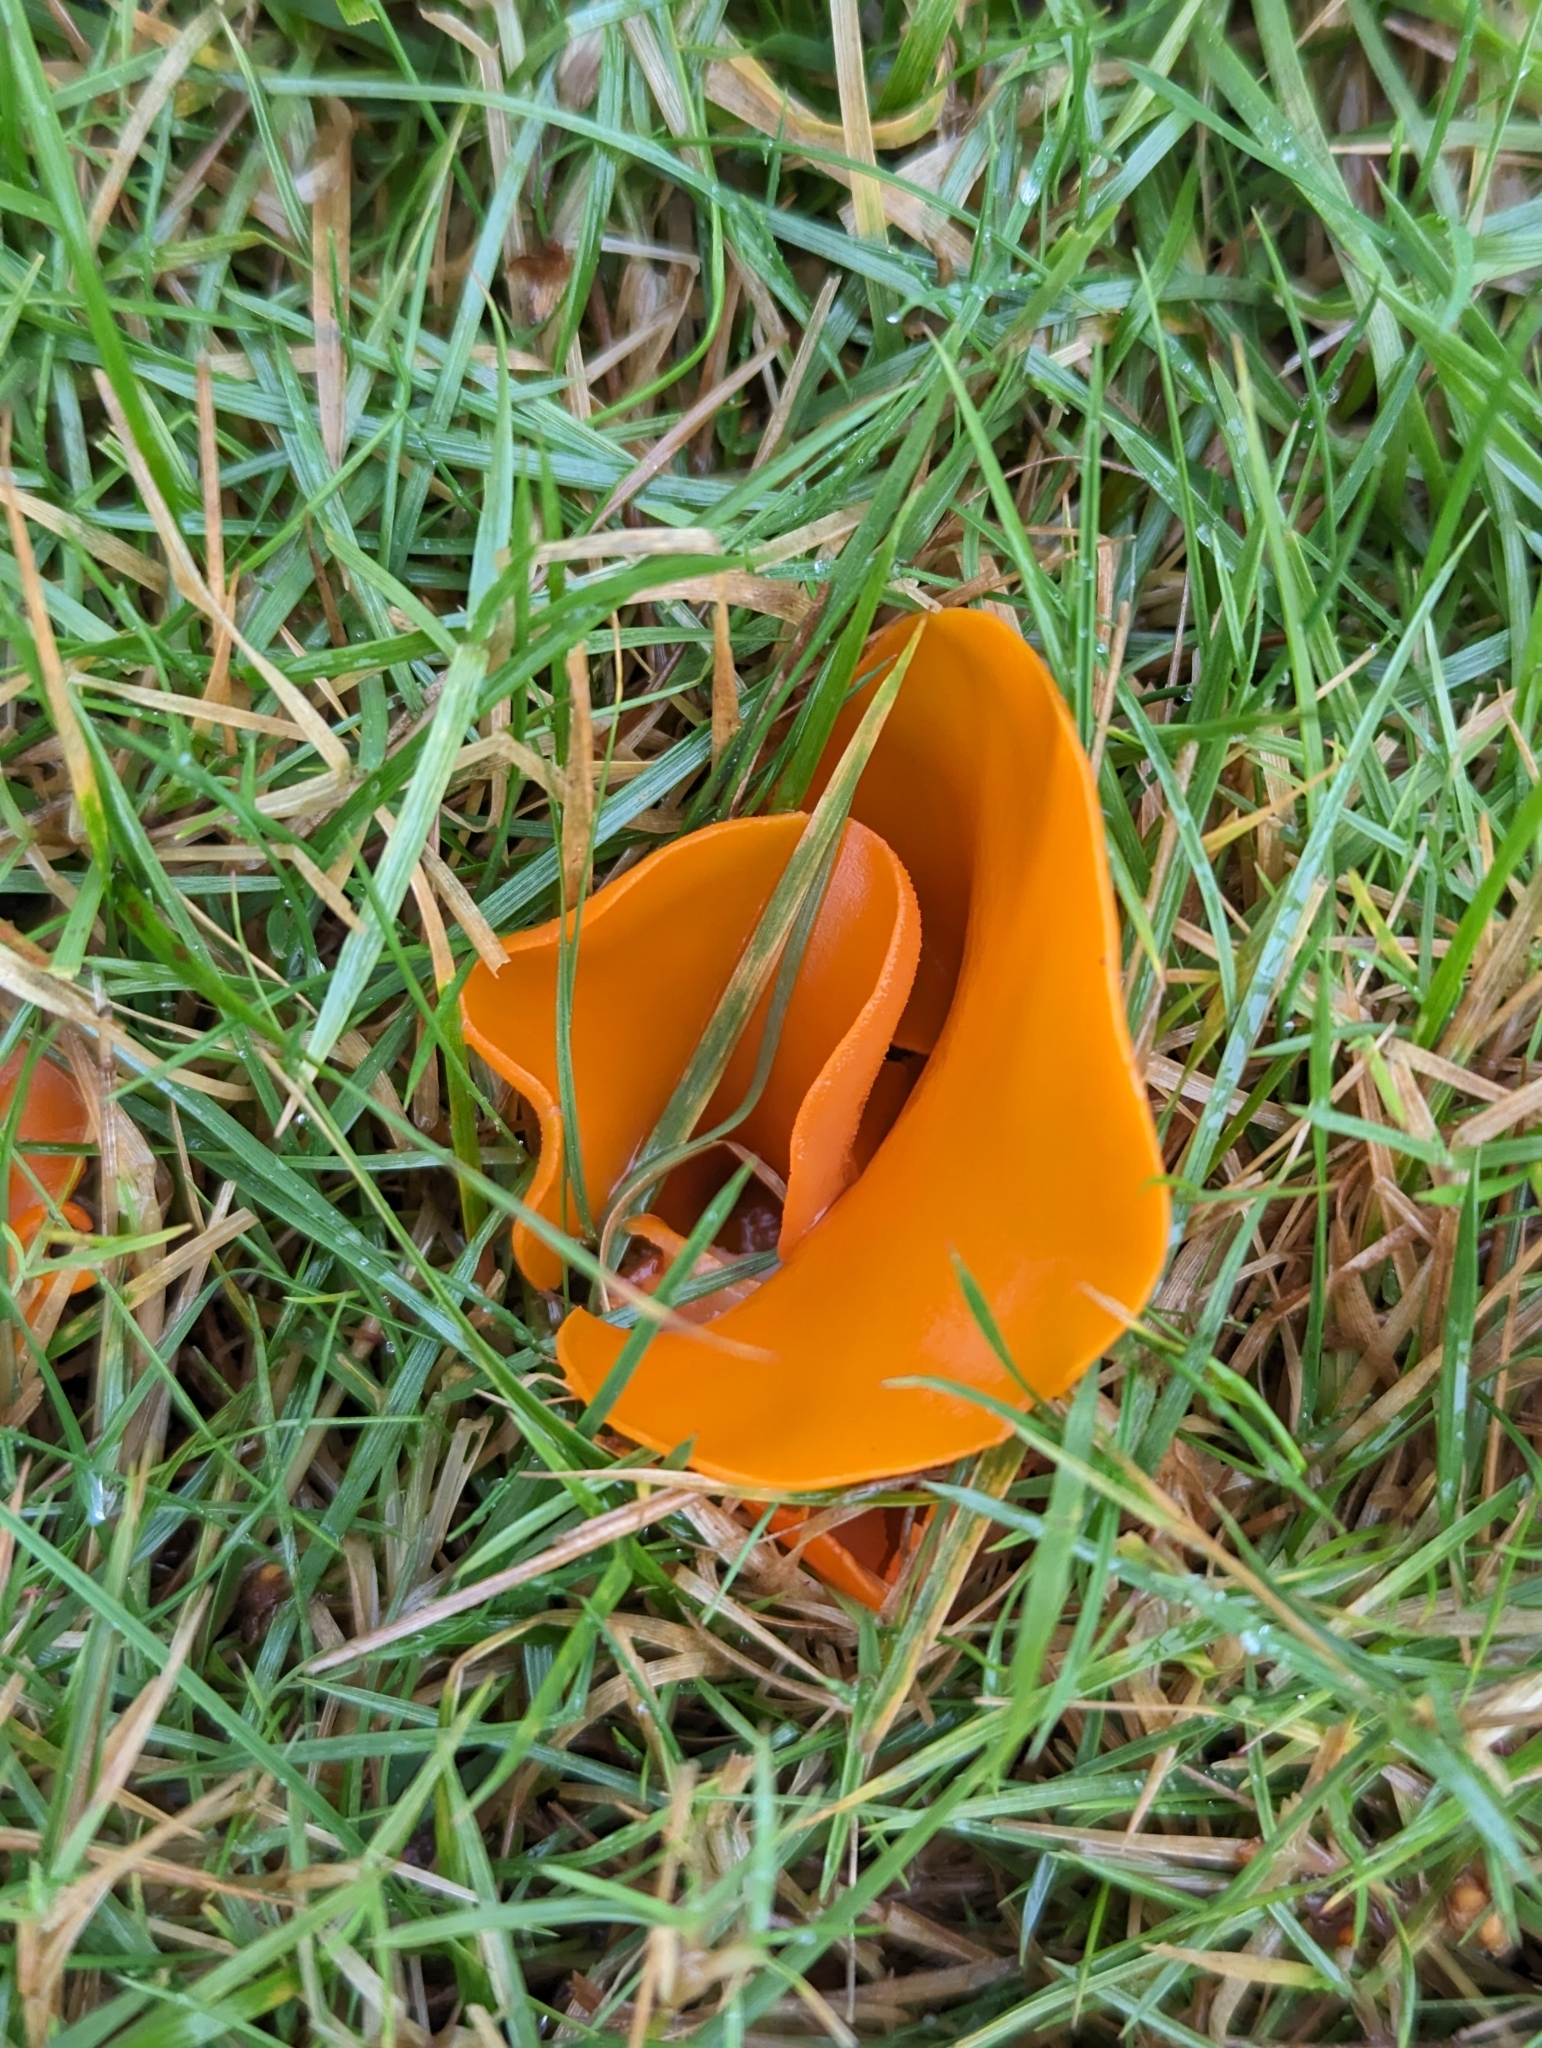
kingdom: Fungi
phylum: Ascomycota
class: Pezizomycetes
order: Pezizales
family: Pyronemataceae
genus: Aleuria
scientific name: Aleuria aurantia
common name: Orange peel fungus
